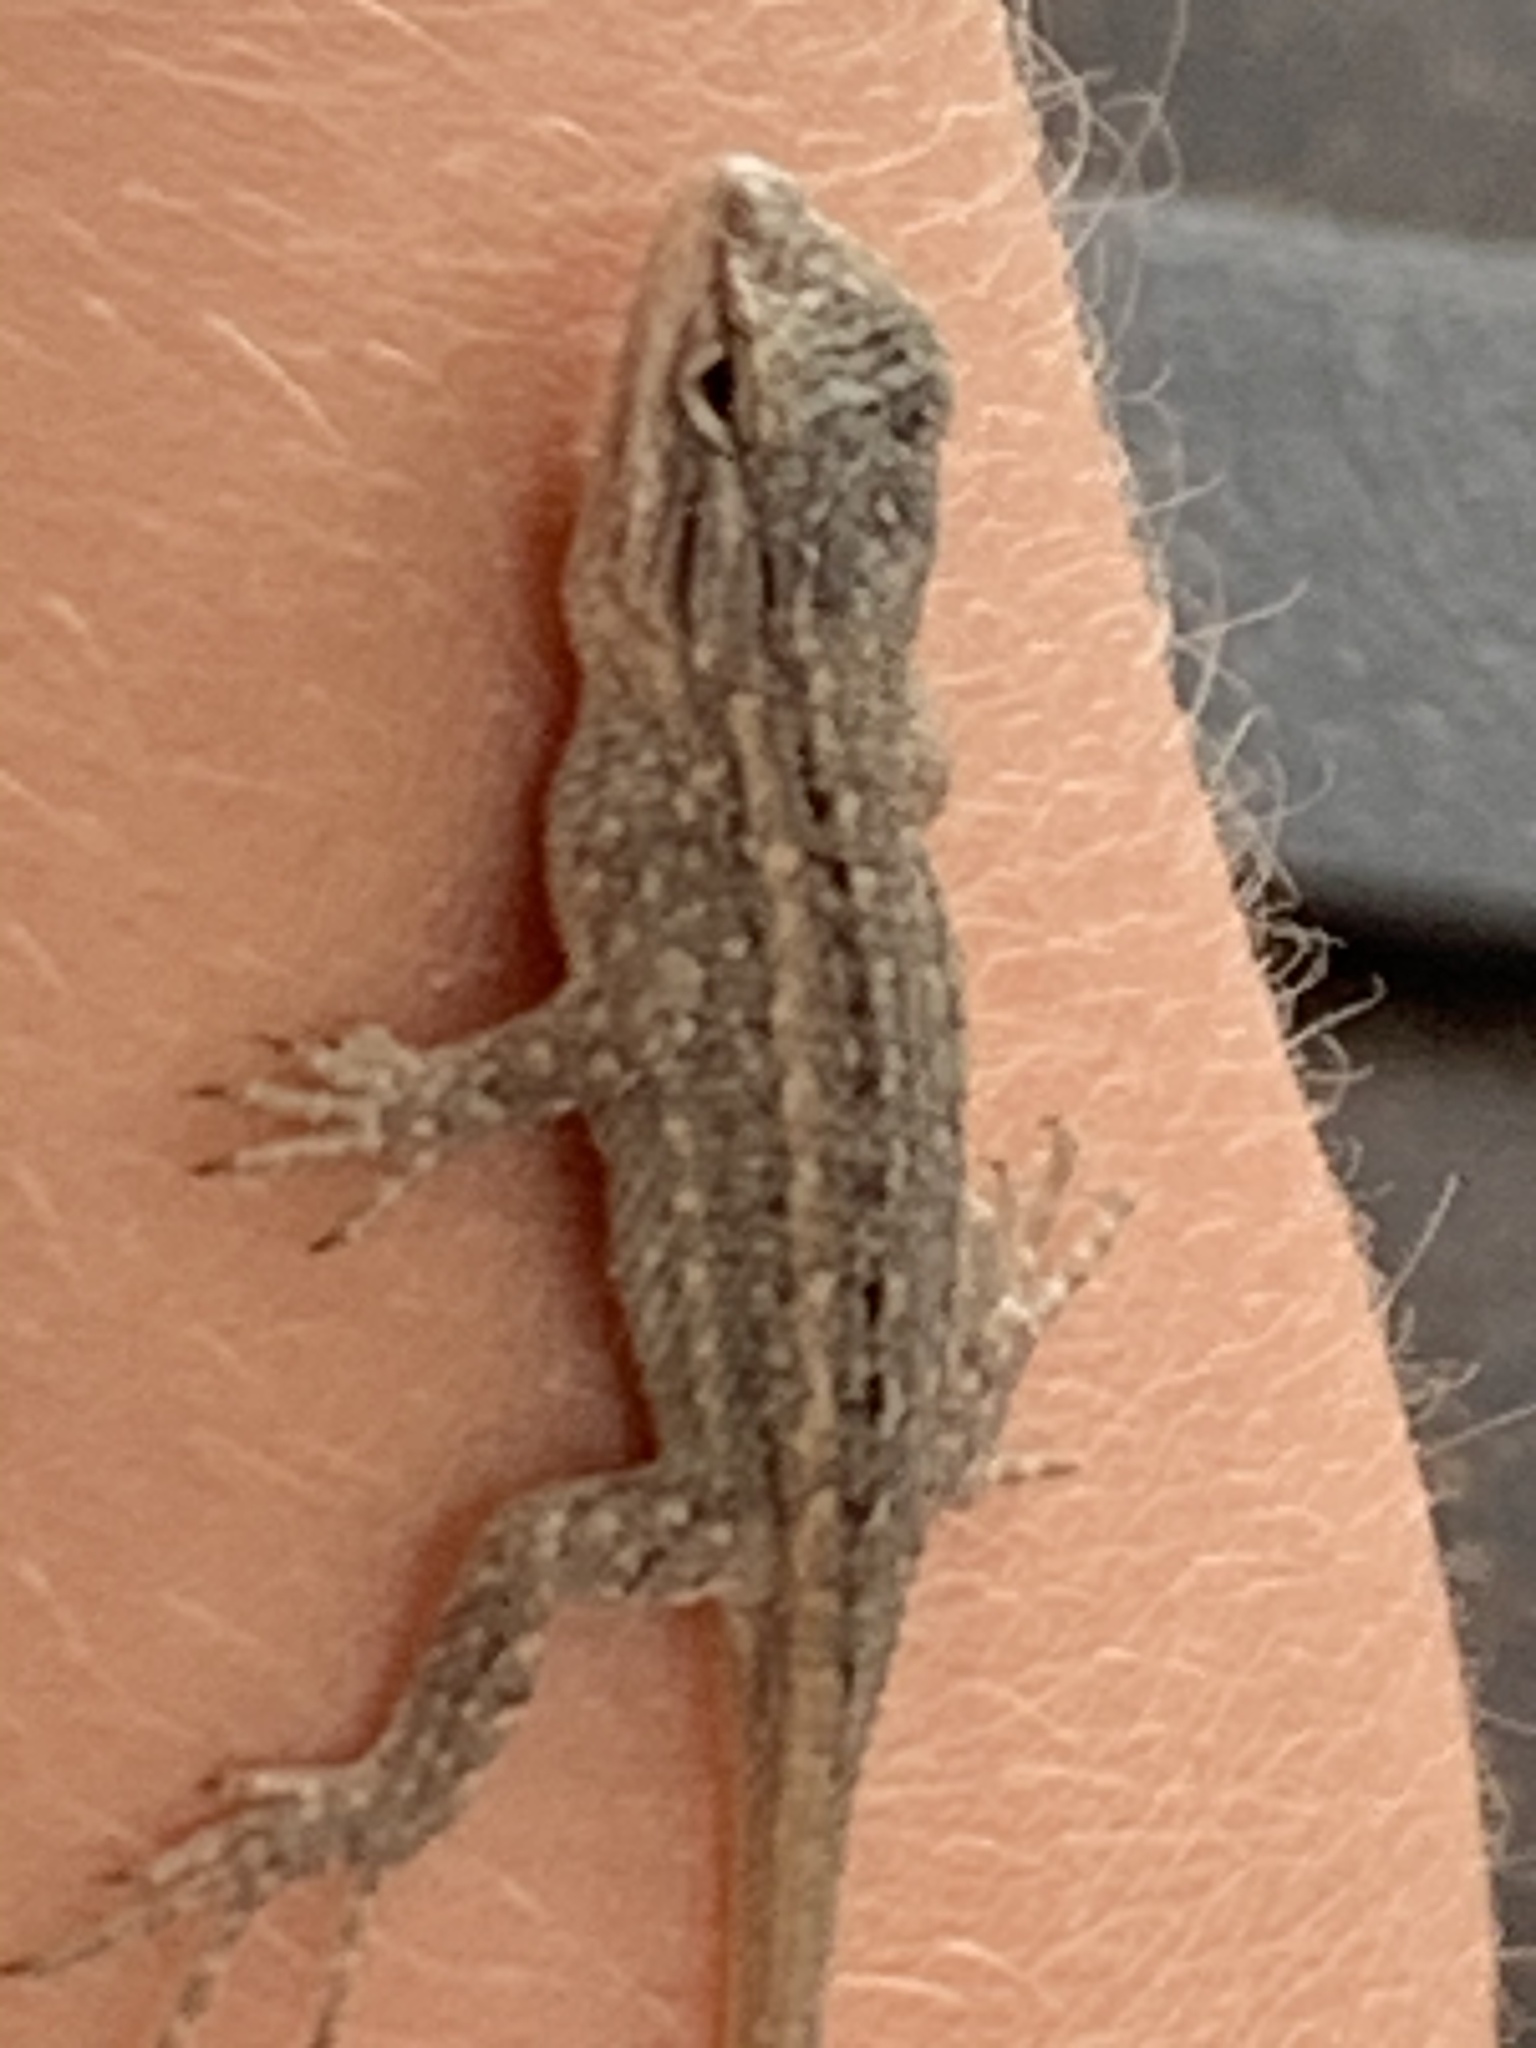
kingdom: Animalia
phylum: Chordata
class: Squamata
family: Phrynosomatidae
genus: Sceloporus
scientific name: Sceloporus cowlesi
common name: White sands prairie lizard
